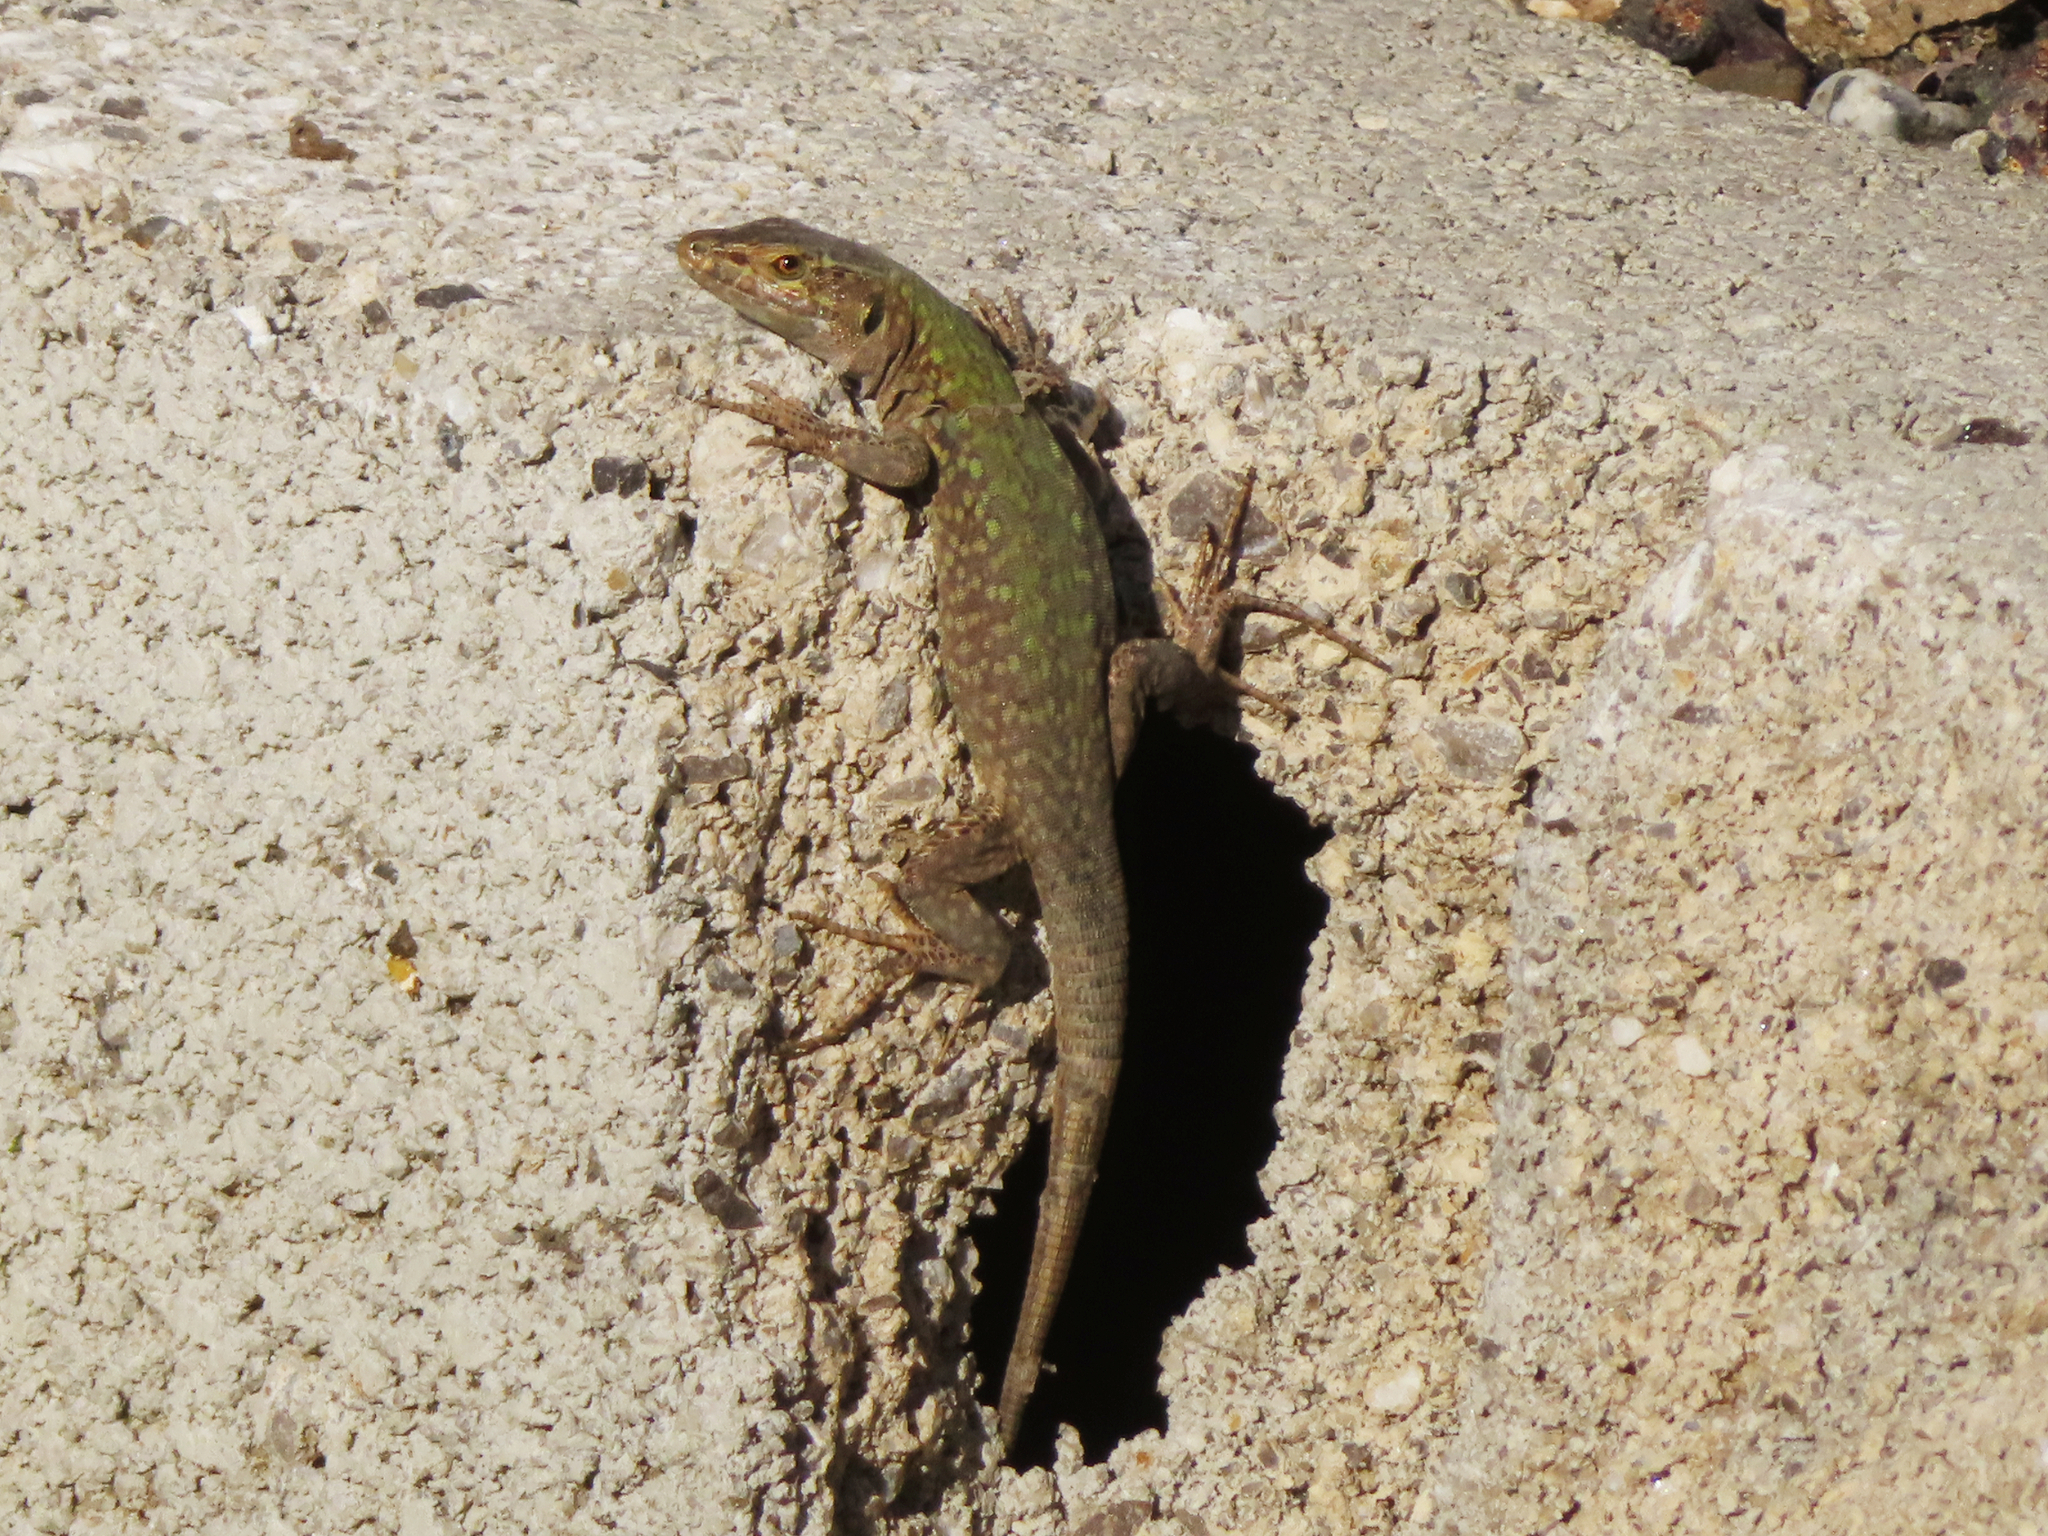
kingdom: Animalia
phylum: Chordata
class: Squamata
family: Lacertidae
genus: Podarcis
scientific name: Podarcis siculus
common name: Italian wall lizard
